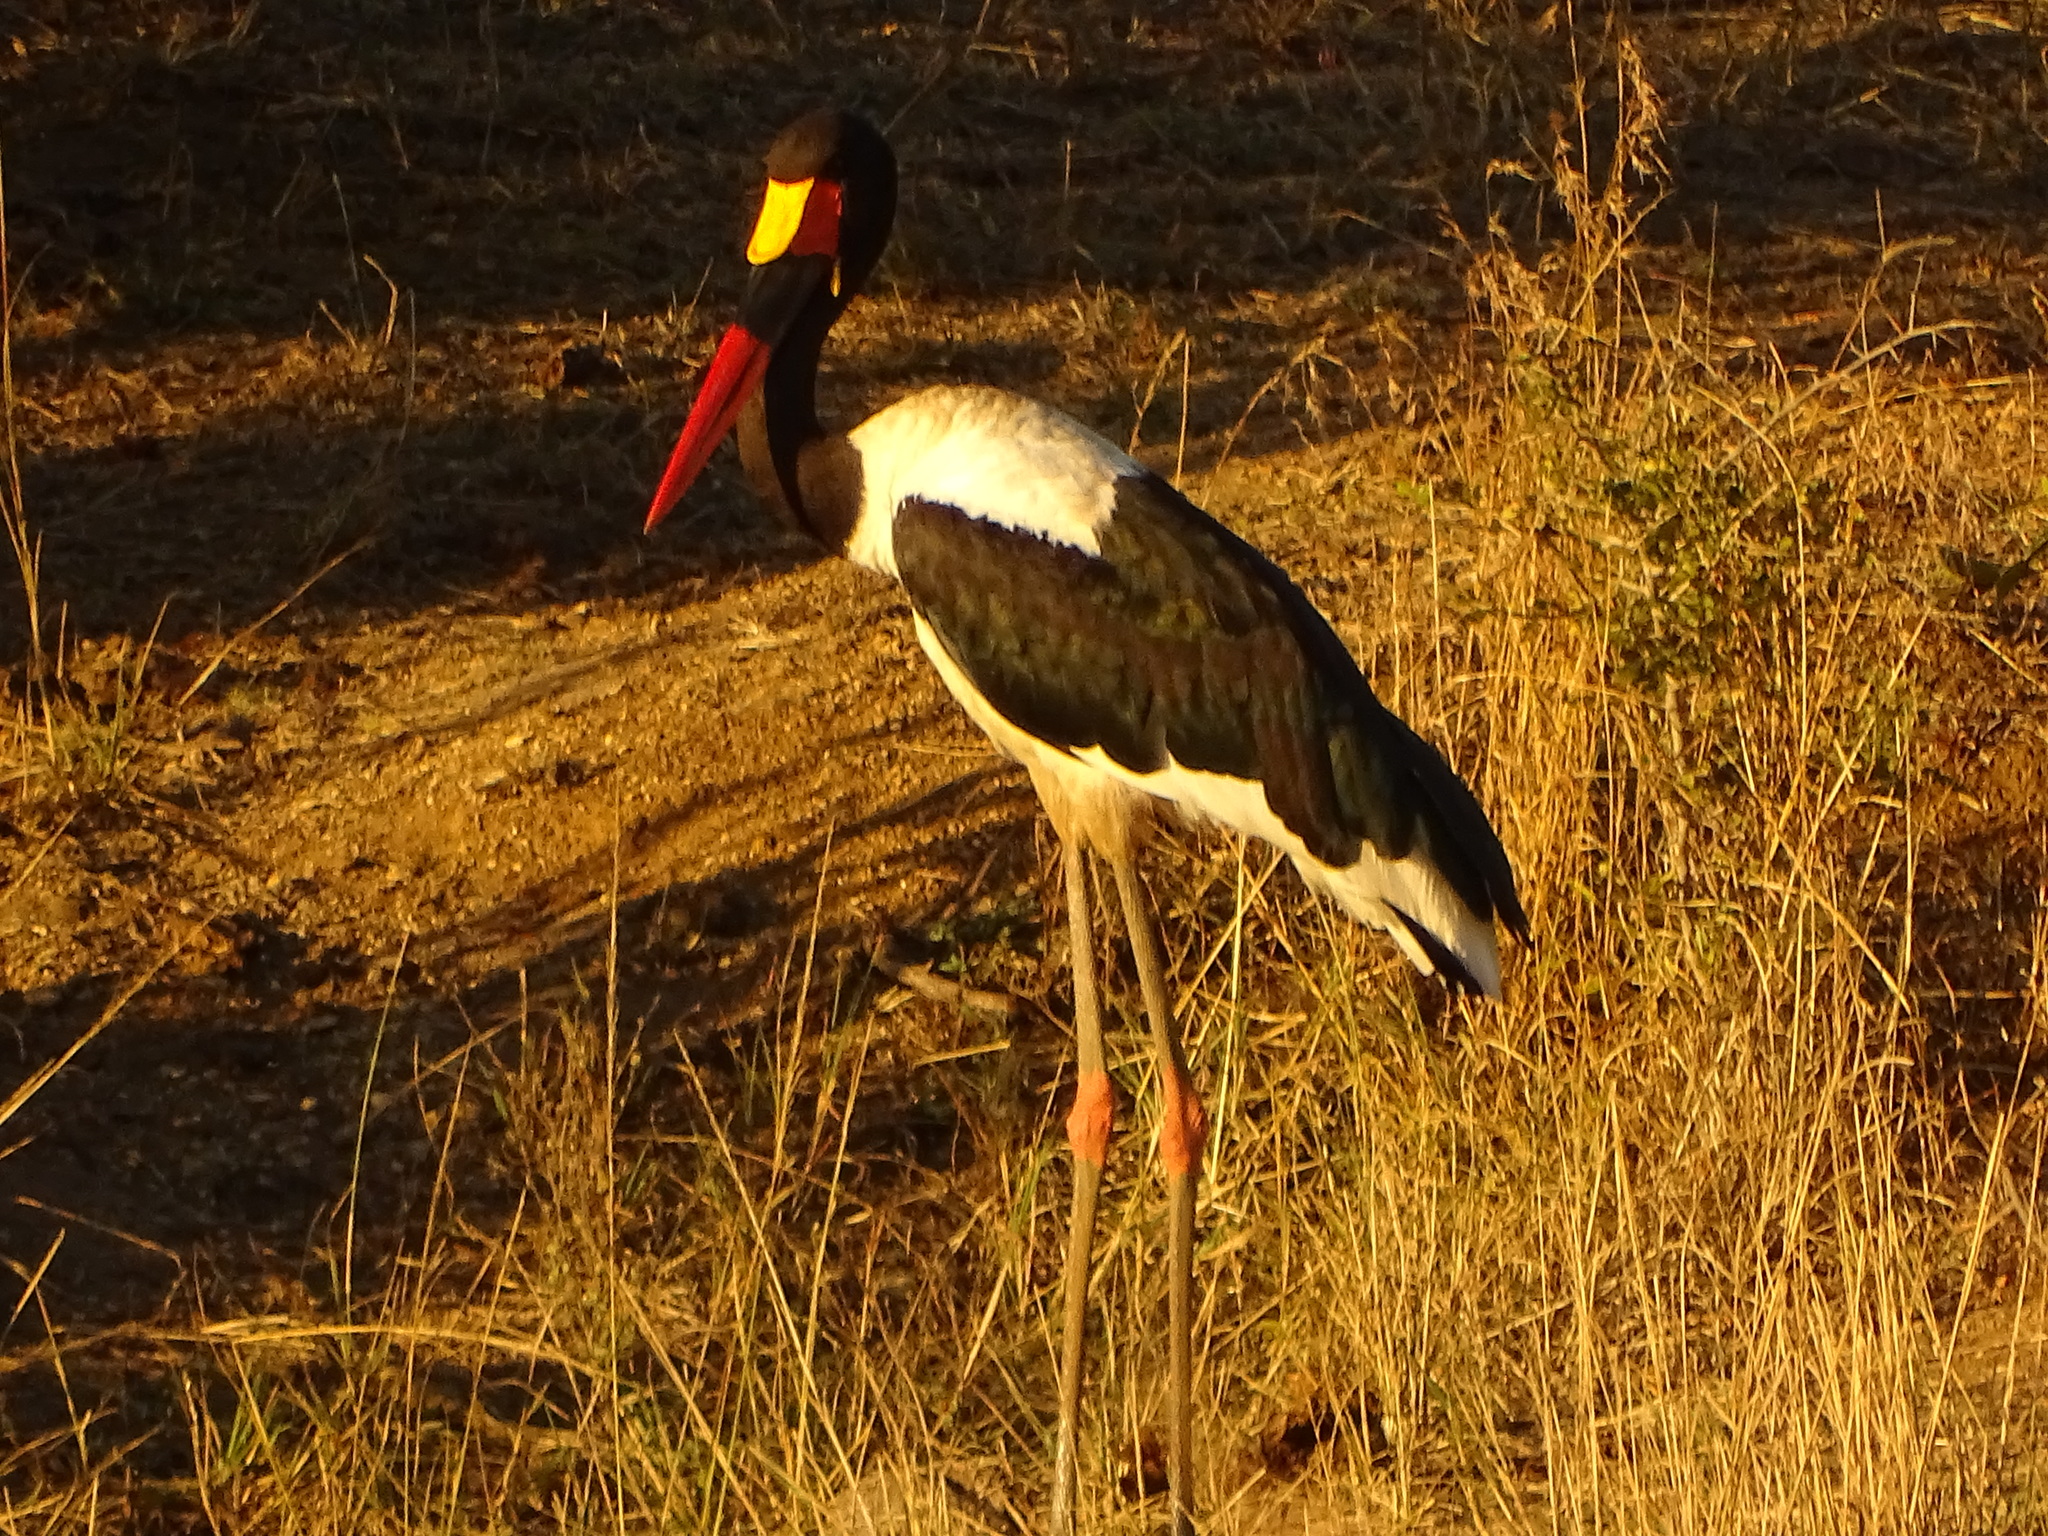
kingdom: Animalia
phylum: Chordata
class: Aves
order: Ciconiiformes
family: Ciconiidae
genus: Ephippiorhynchus
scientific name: Ephippiorhynchus senegalensis
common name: Saddle-billed stork
